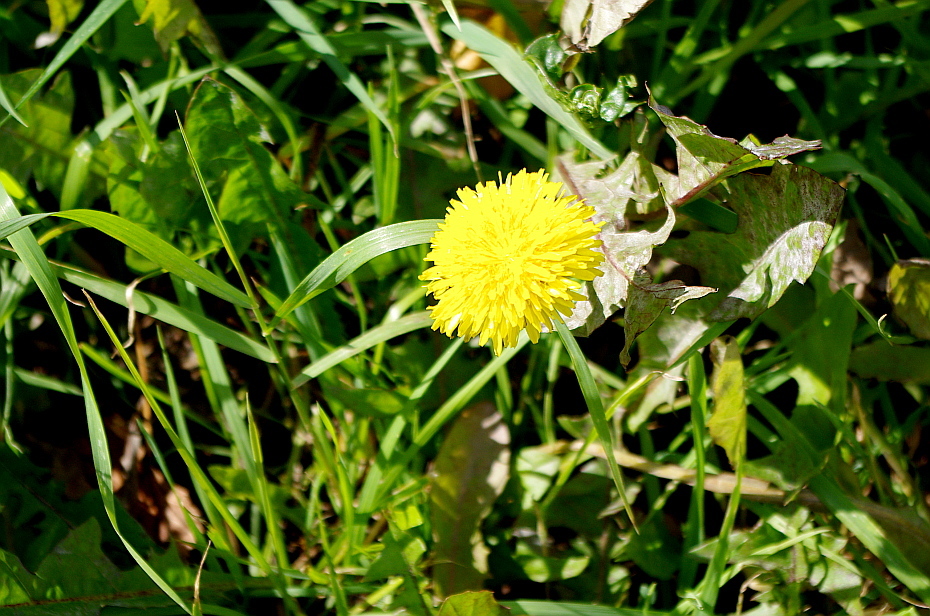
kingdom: Plantae
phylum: Tracheophyta
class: Magnoliopsida
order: Asterales
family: Asteraceae
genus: Taraxacum
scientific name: Taraxacum officinale
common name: Common dandelion
